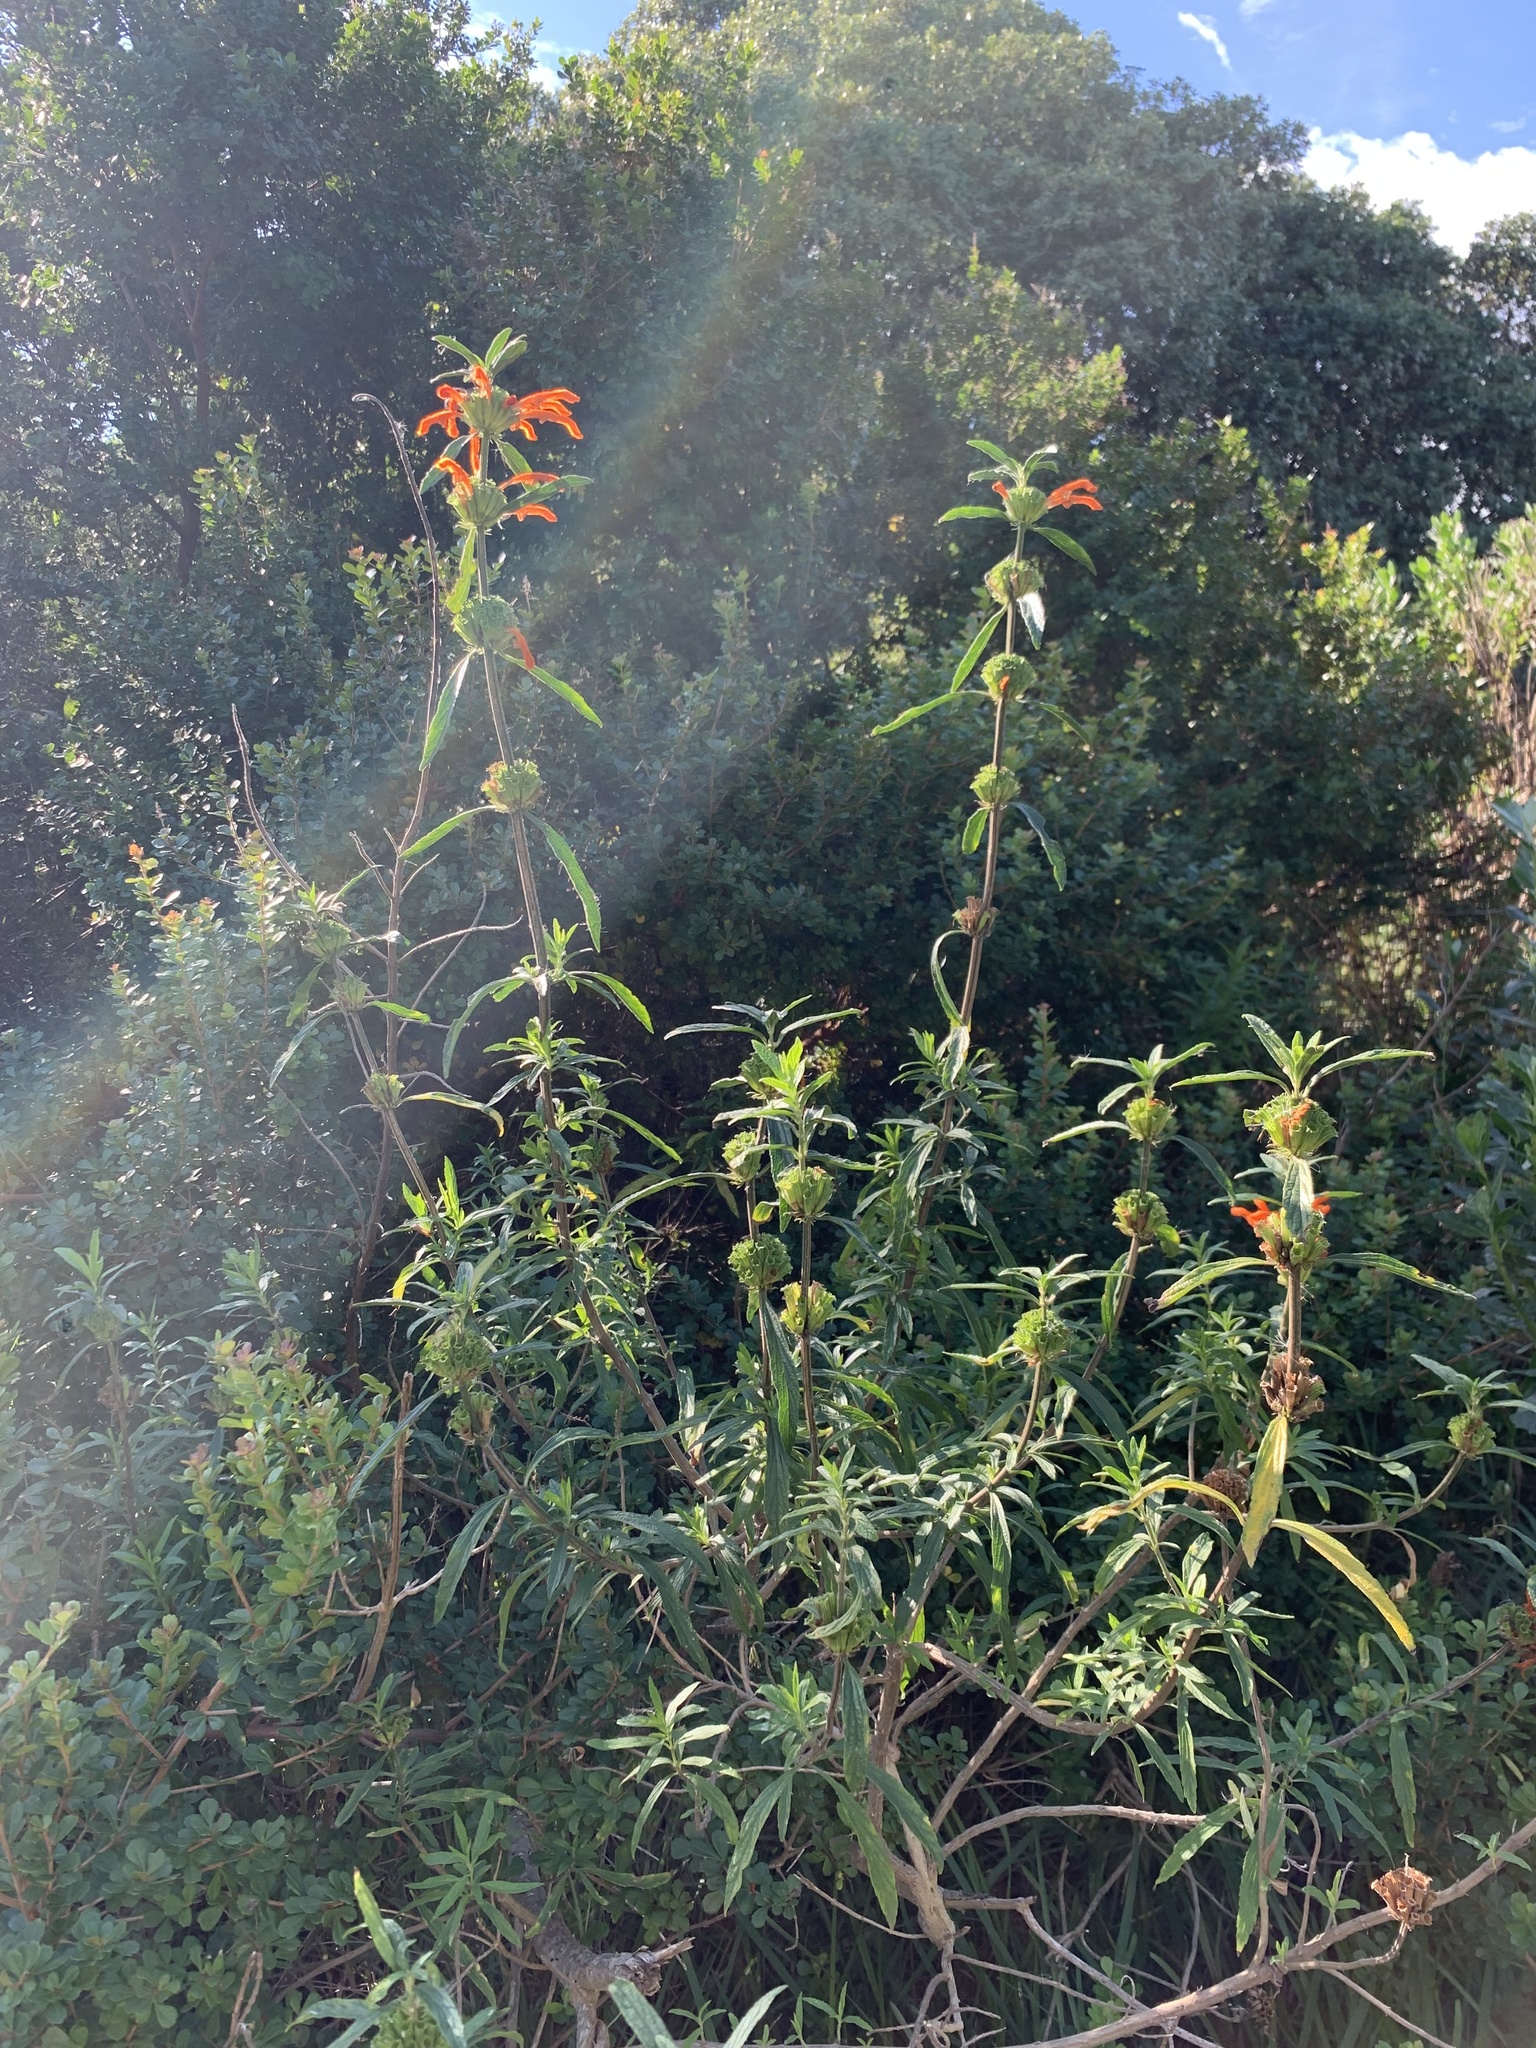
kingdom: Plantae
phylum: Tracheophyta
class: Magnoliopsida
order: Lamiales
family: Lamiaceae
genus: Leonotis
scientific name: Leonotis leonurus
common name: Lion's ear
